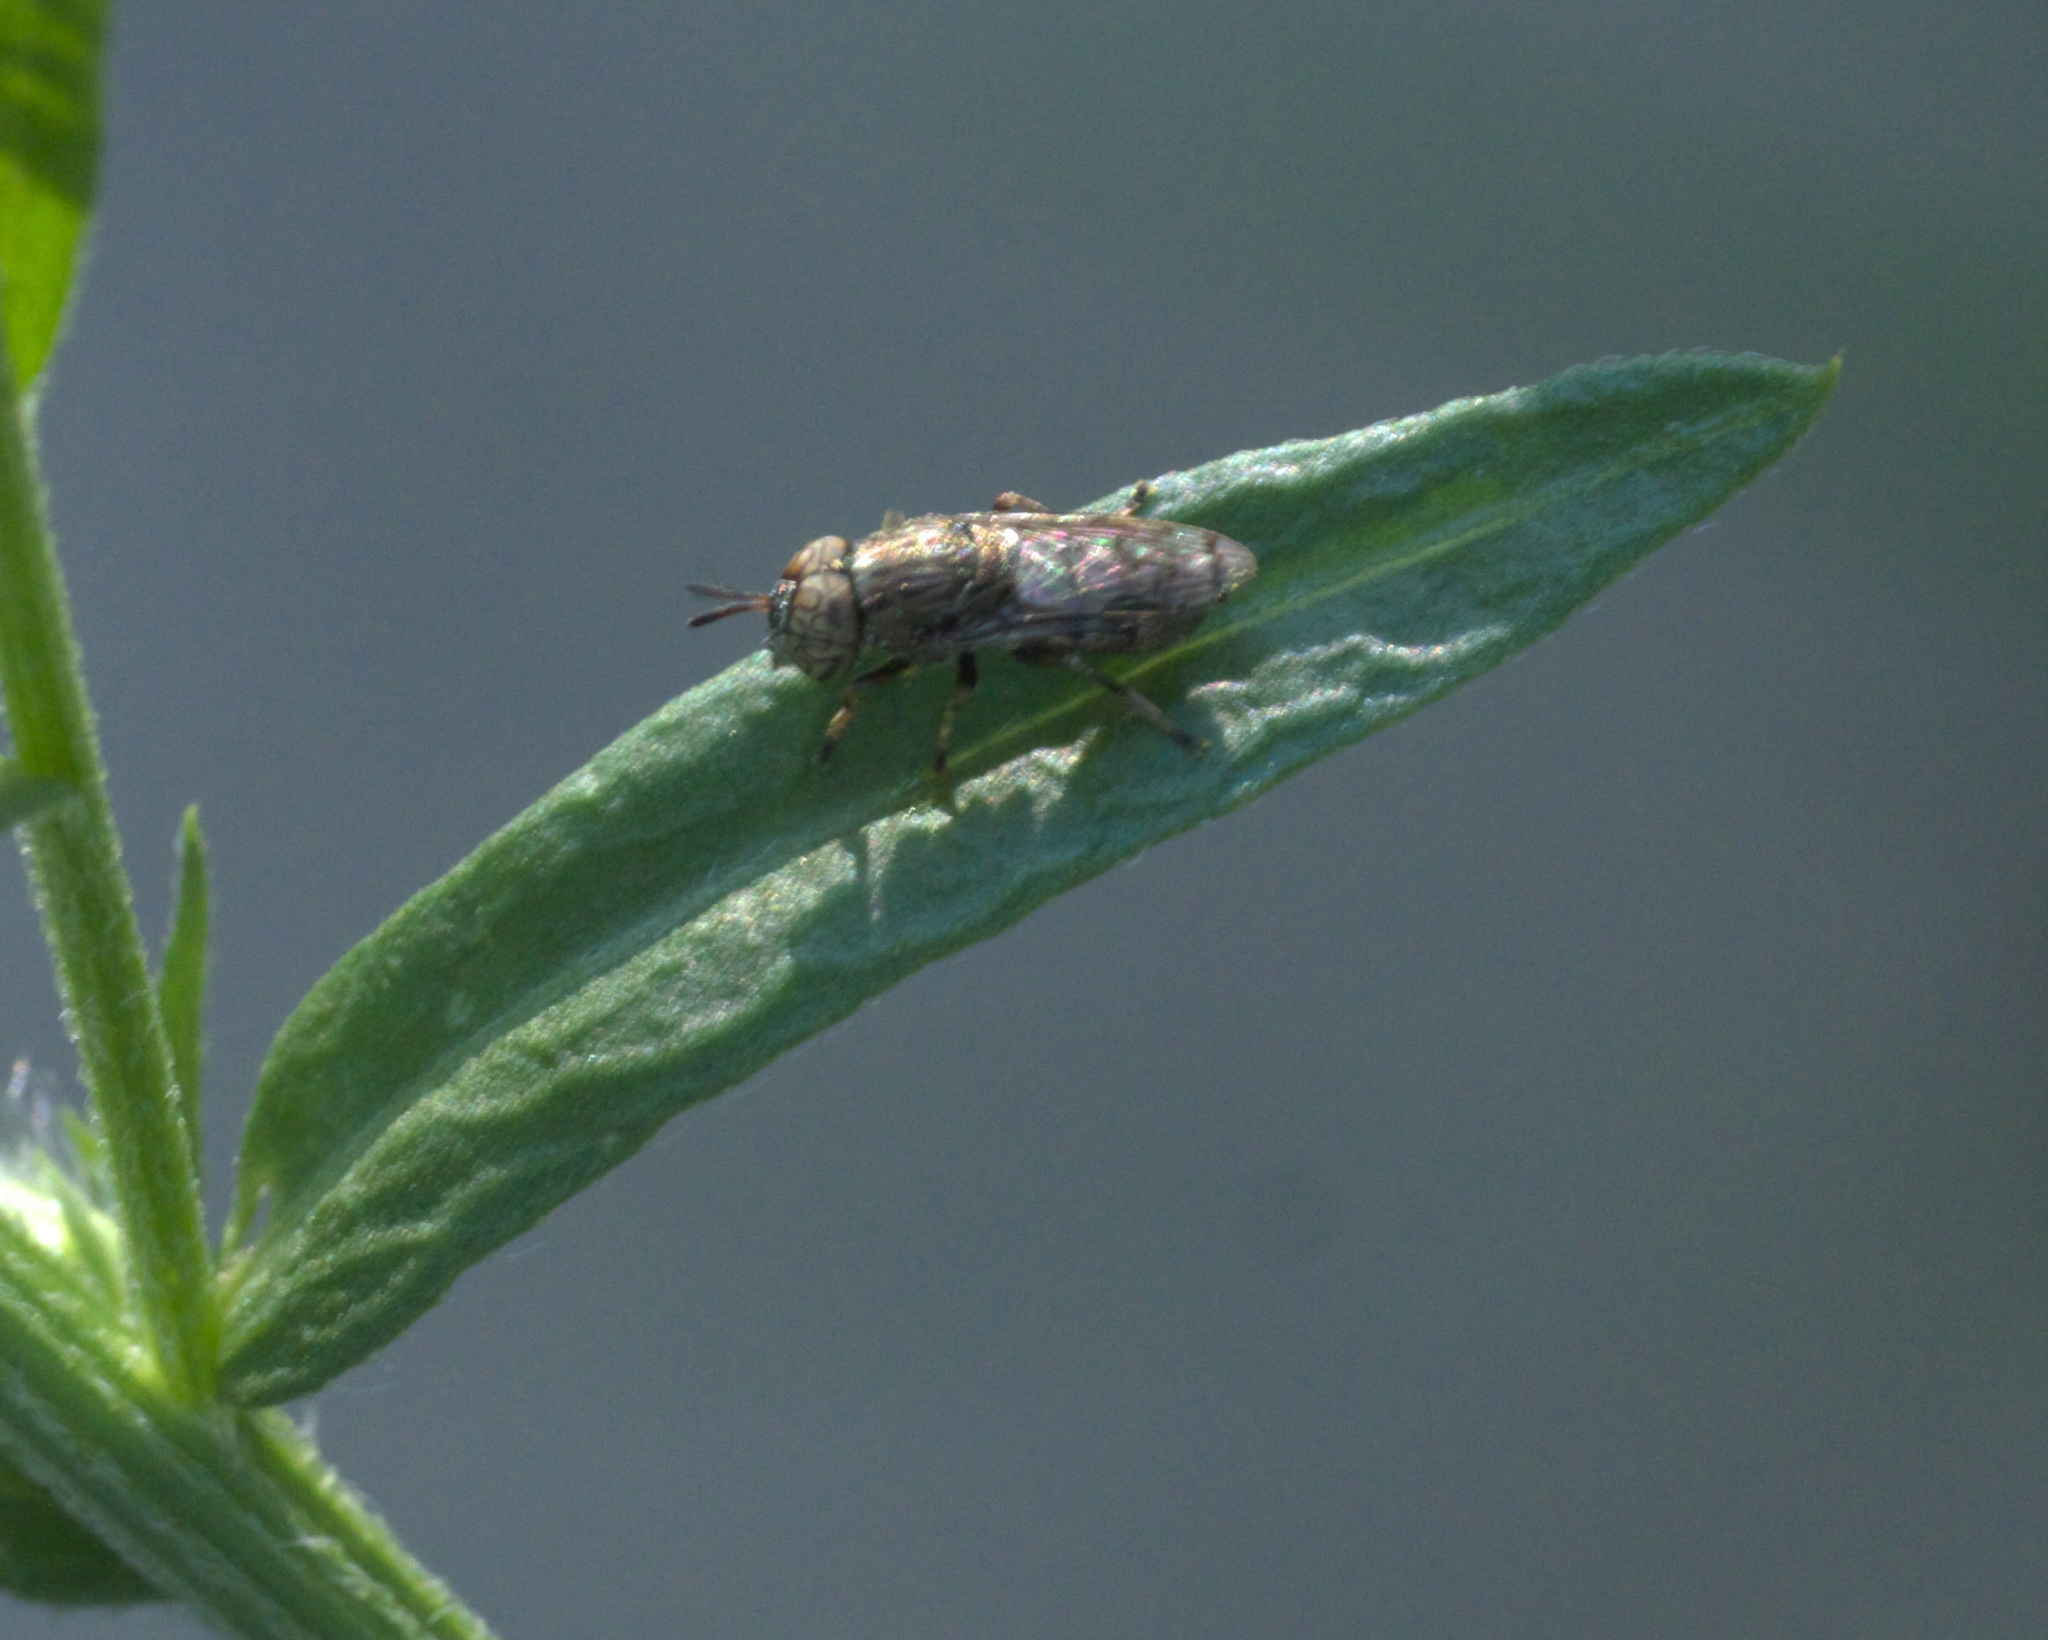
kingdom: Animalia
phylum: Arthropoda
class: Insecta
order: Diptera
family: Syrphidae
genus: Orthonevra
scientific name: Orthonevra nitida
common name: Wavy mucksucker
